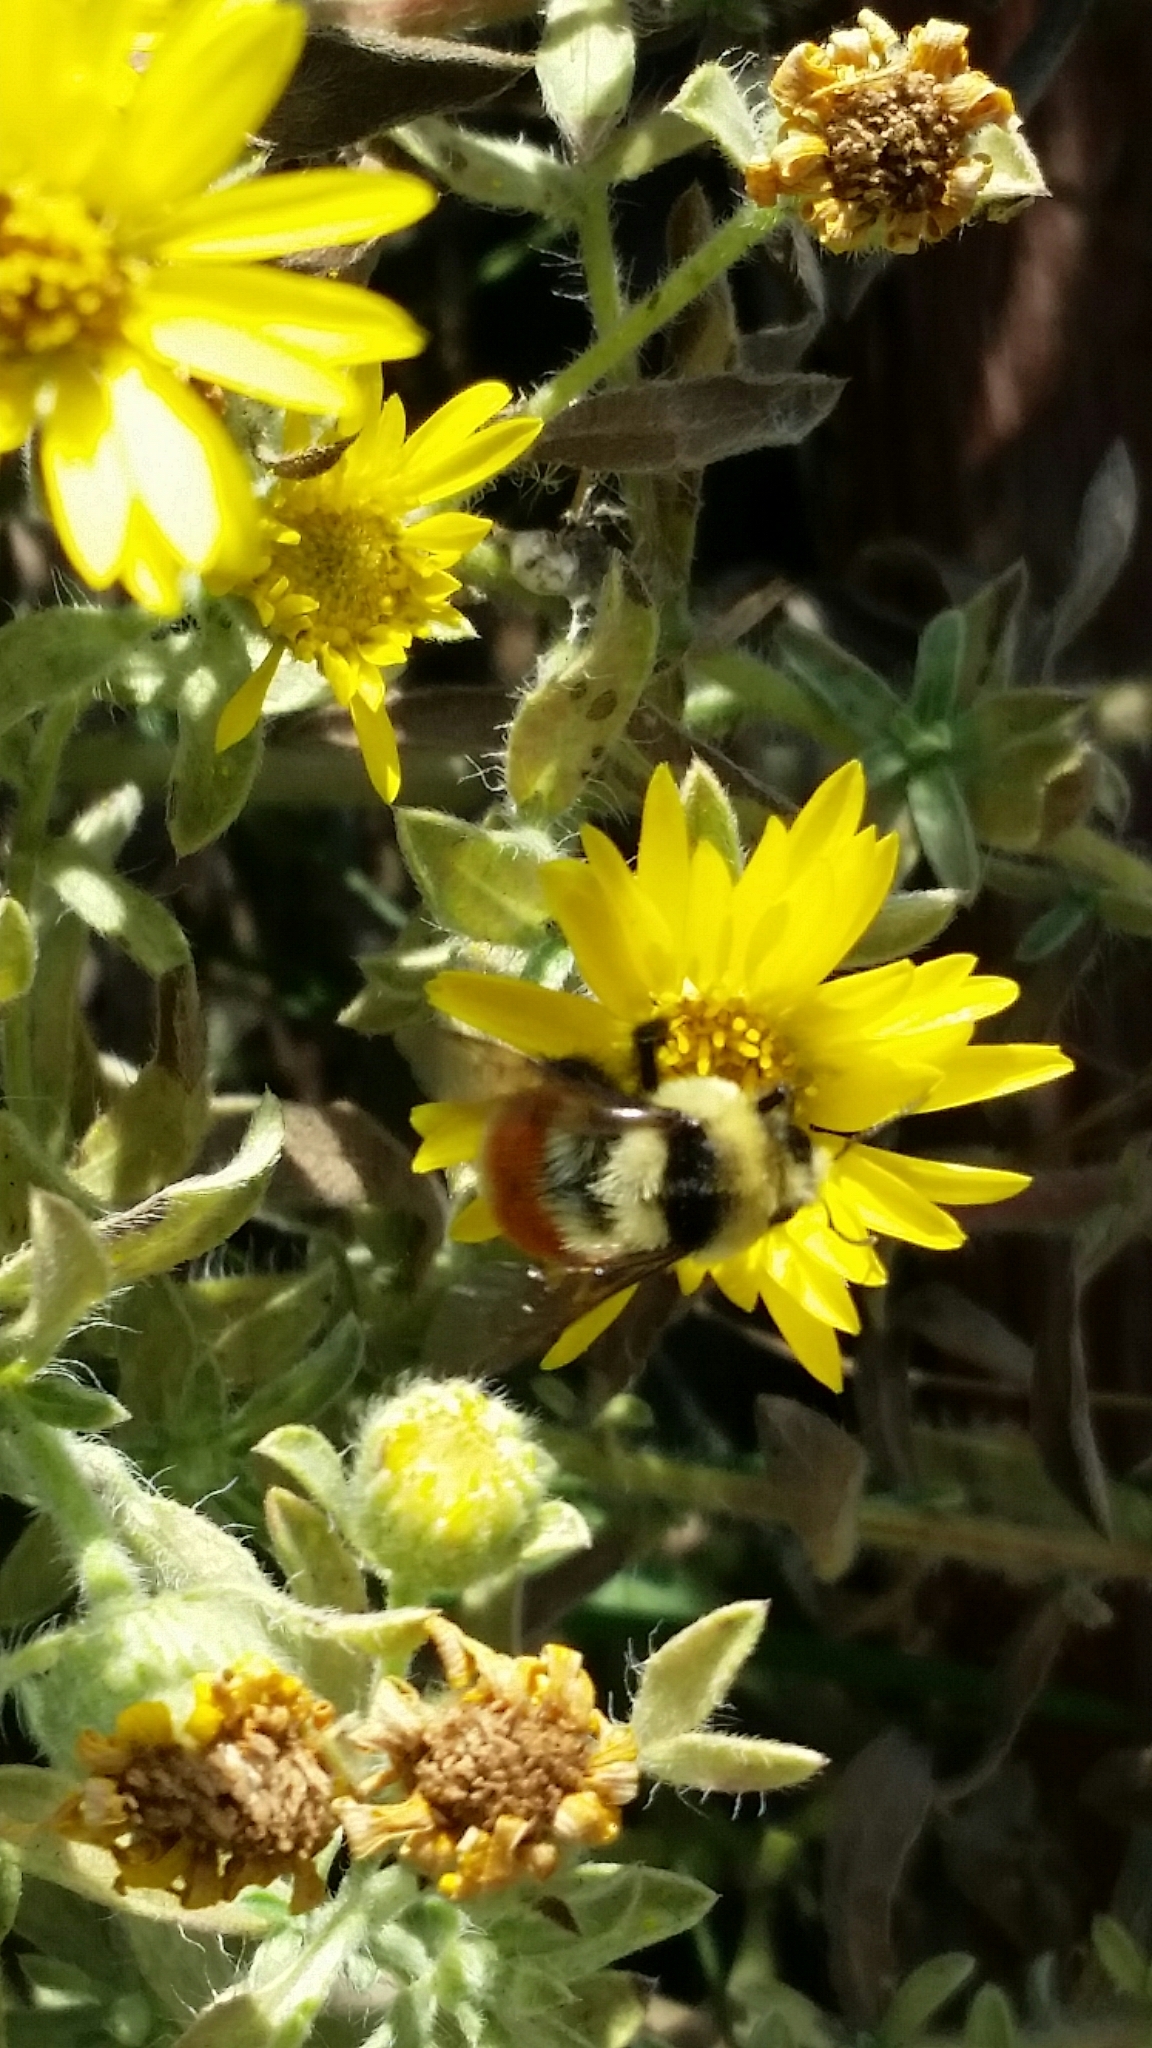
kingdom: Animalia
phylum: Arthropoda
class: Insecta
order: Hymenoptera
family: Apidae
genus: Bombus
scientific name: Bombus huntii
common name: Hunt bumble bee
